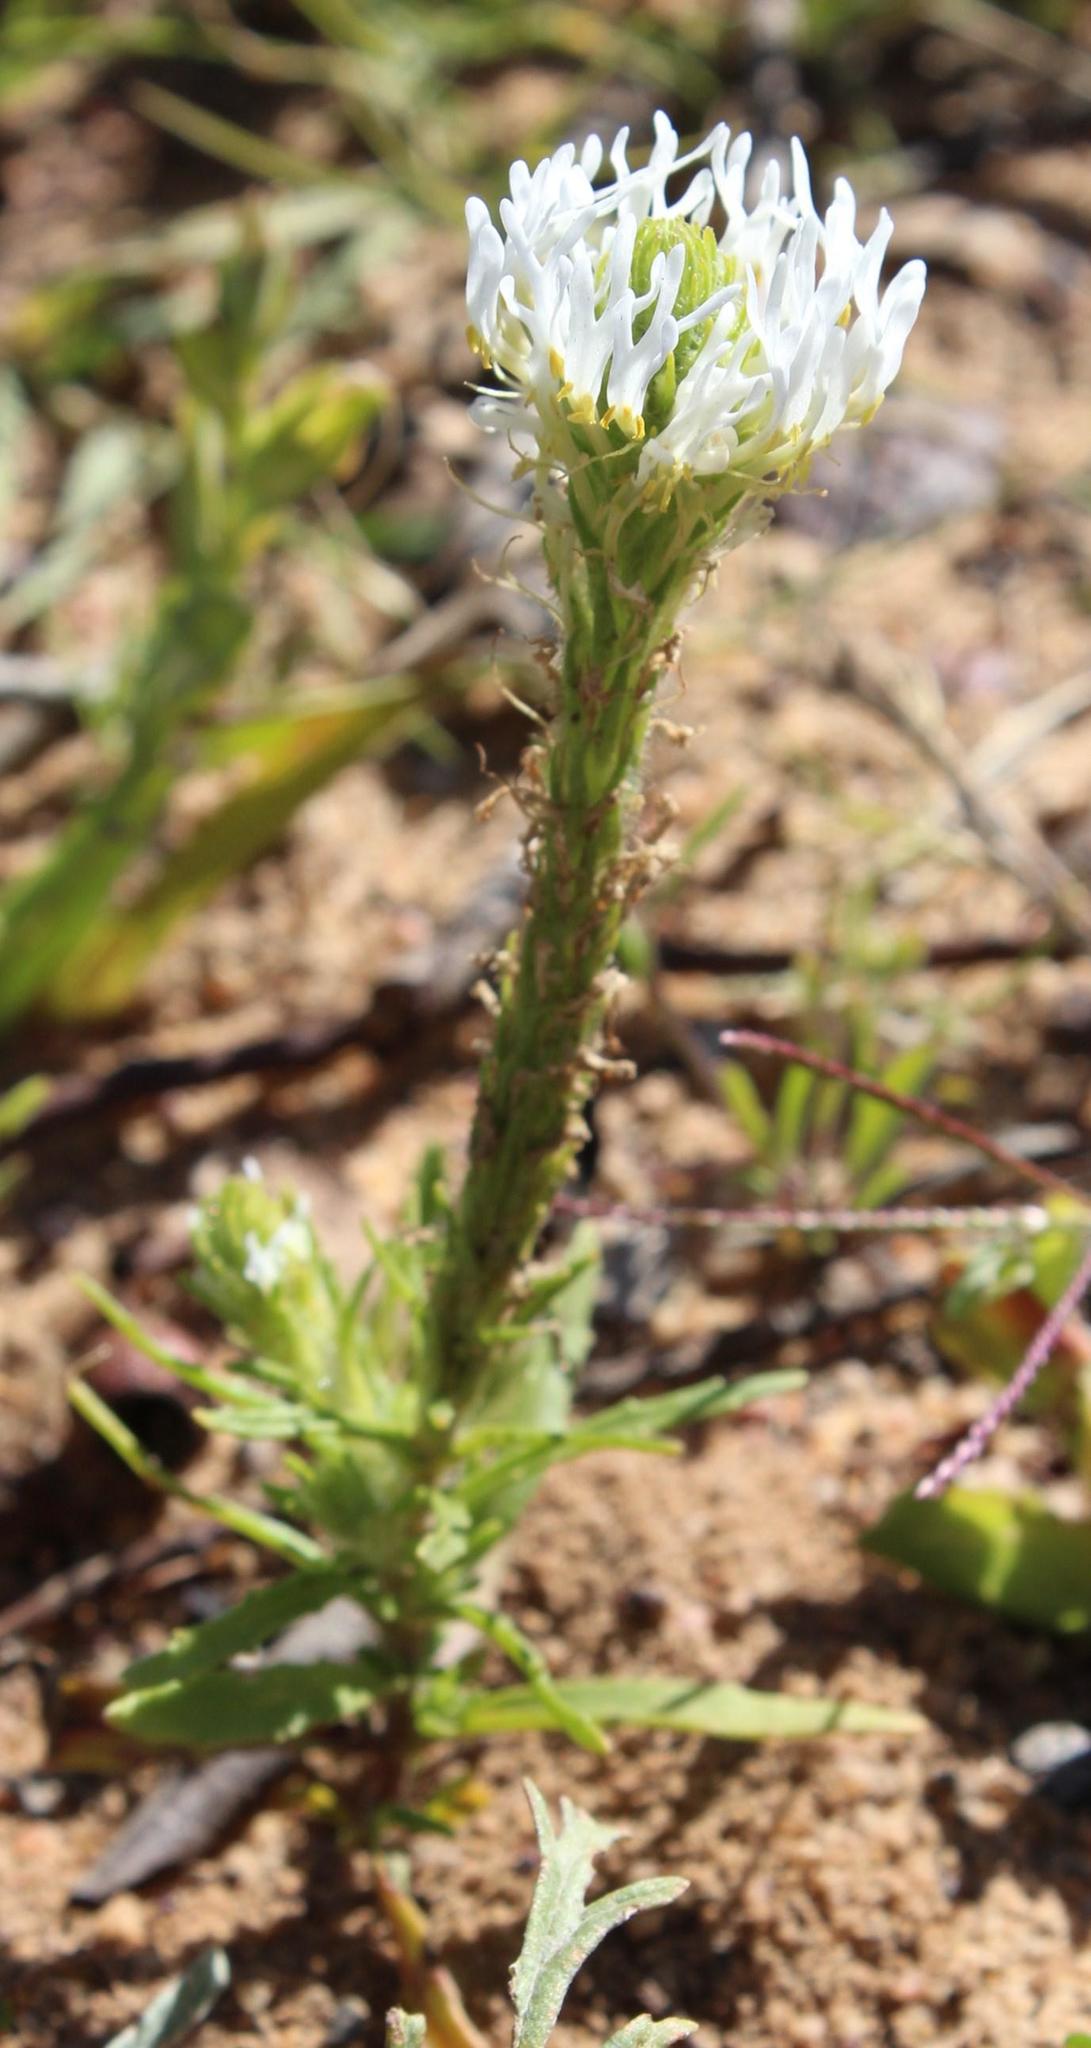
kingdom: Plantae
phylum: Tracheophyta
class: Magnoliopsida
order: Lamiales
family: Scrophulariaceae
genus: Dischisma
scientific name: Dischisma spicatum
